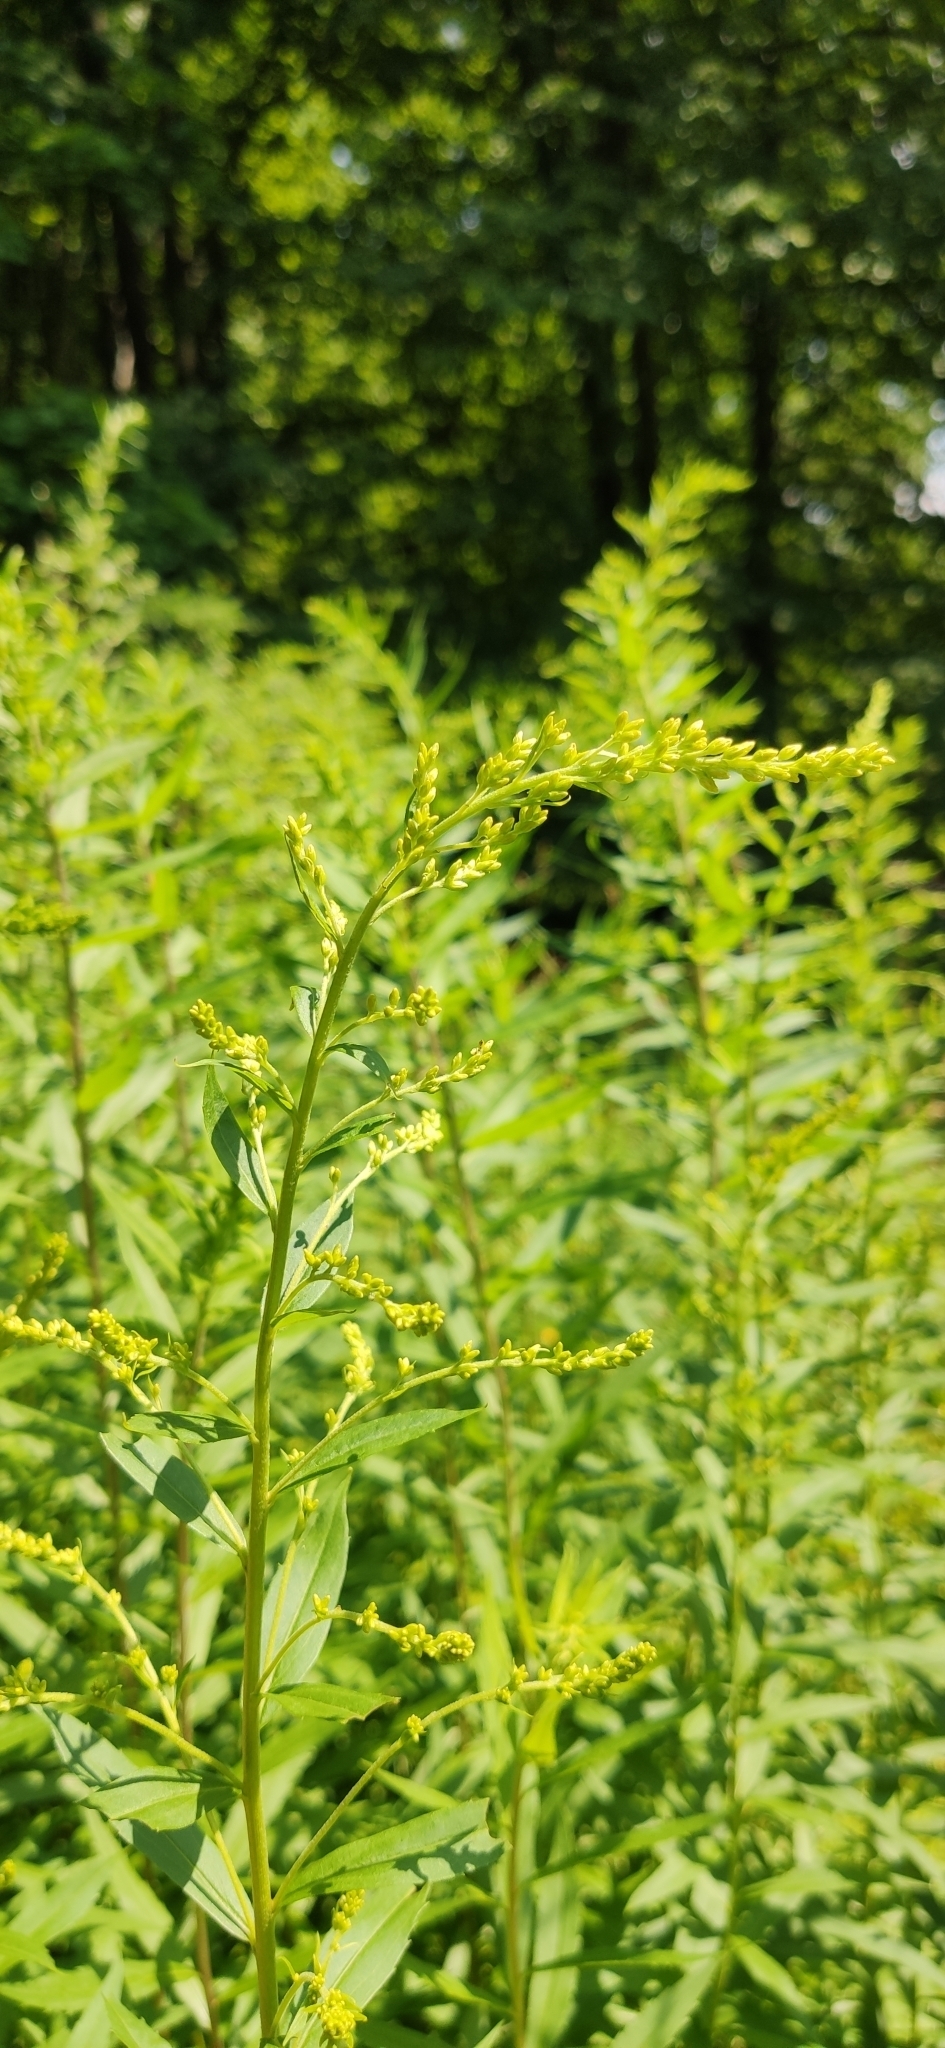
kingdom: Plantae
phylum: Tracheophyta
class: Magnoliopsida
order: Asterales
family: Asteraceae
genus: Solidago
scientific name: Solidago canadensis
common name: Canada goldenrod
